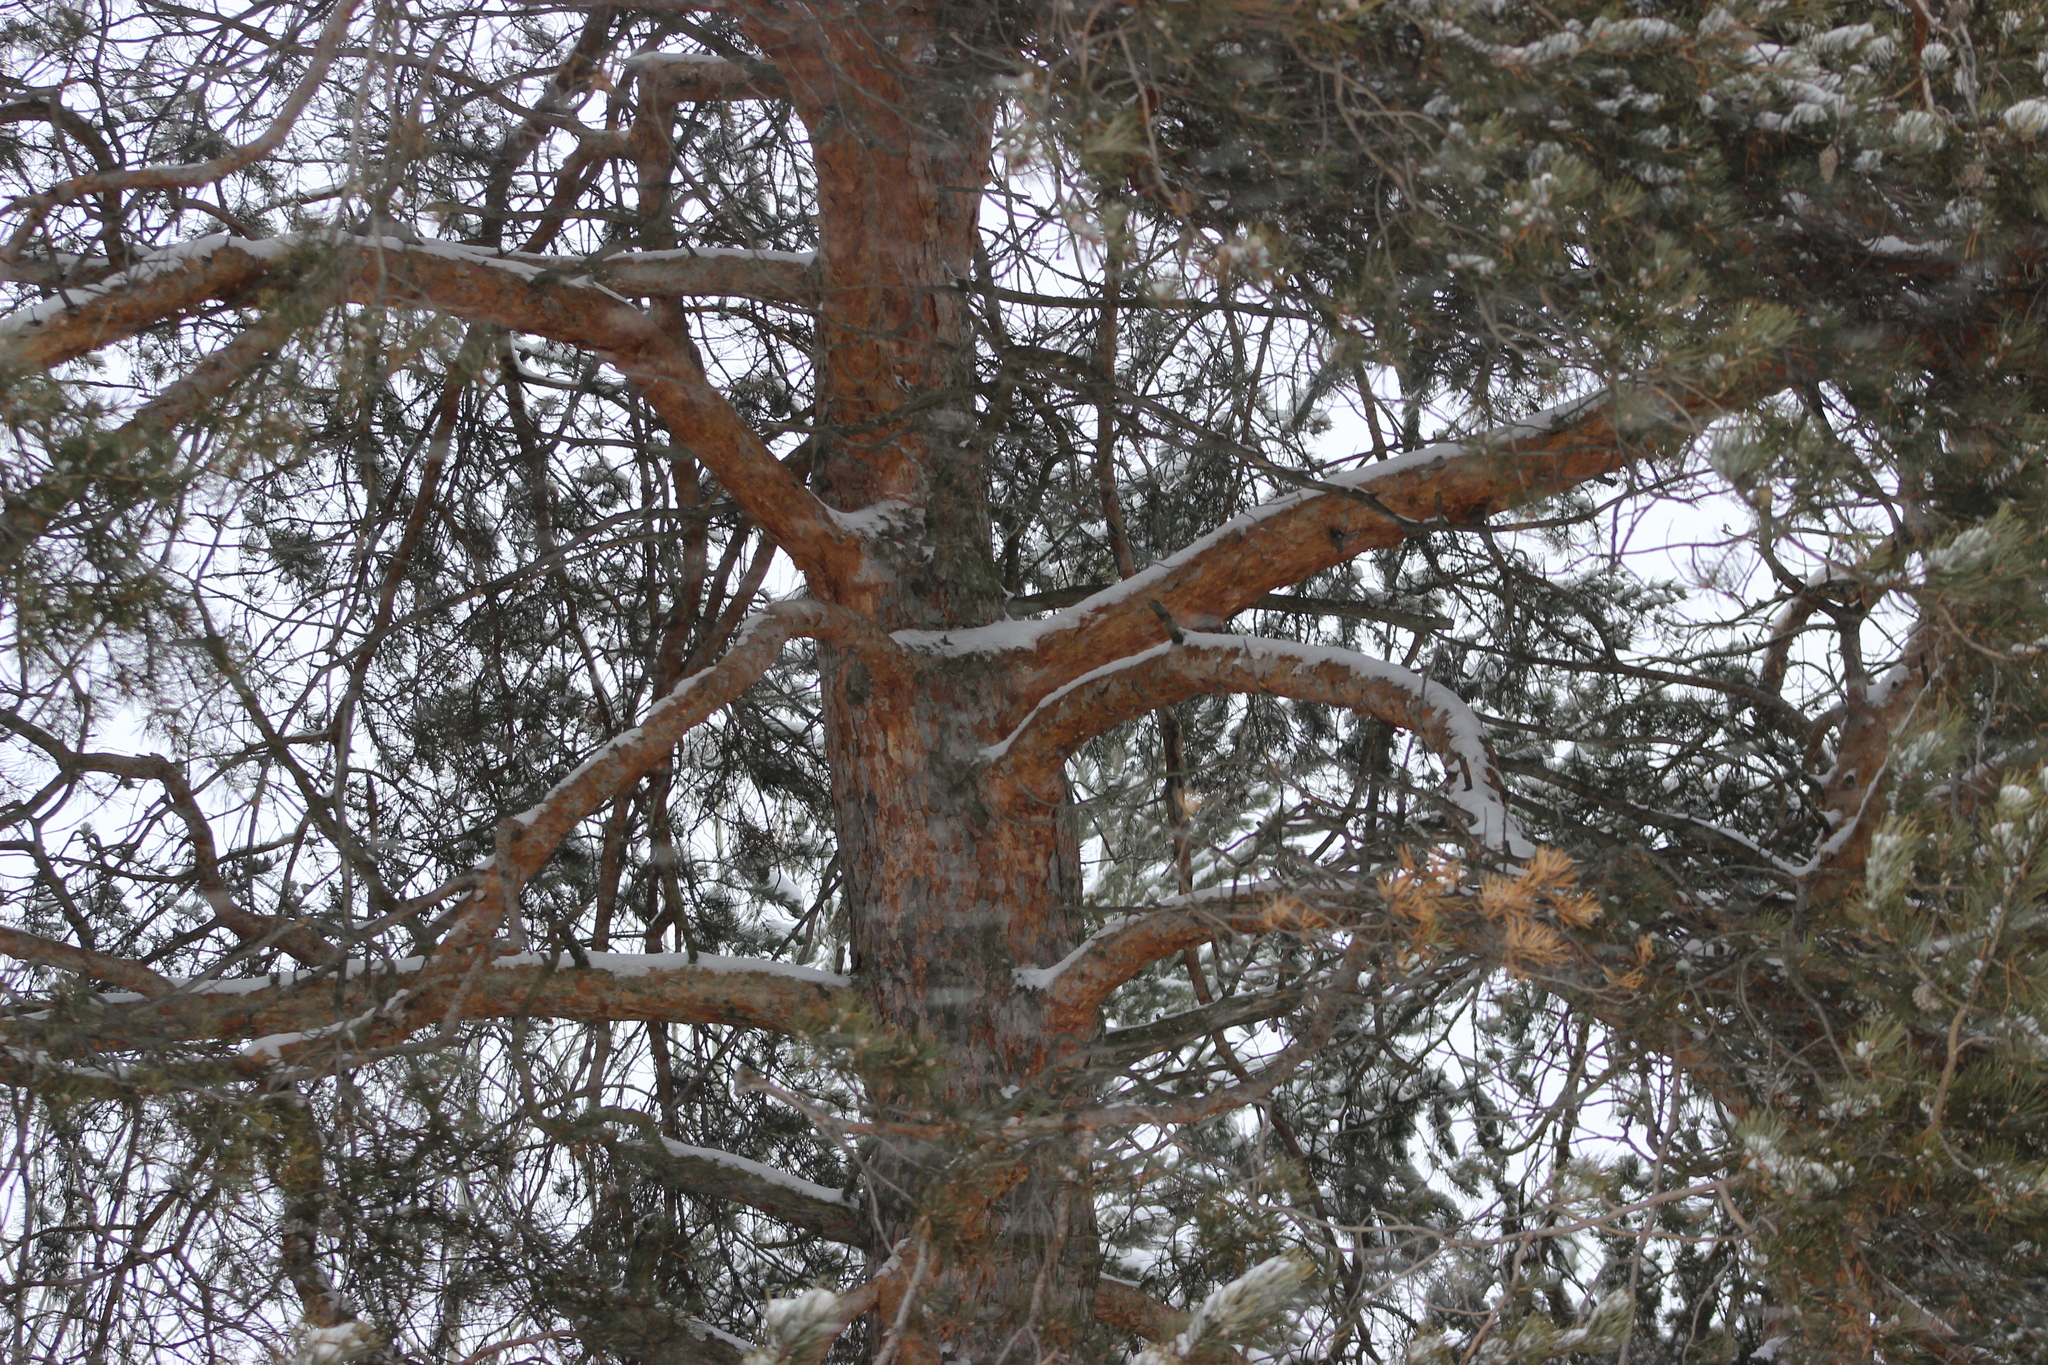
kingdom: Plantae
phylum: Tracheophyta
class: Pinopsida
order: Pinales
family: Pinaceae
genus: Pinus
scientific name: Pinus sylvestris
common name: Scots pine
